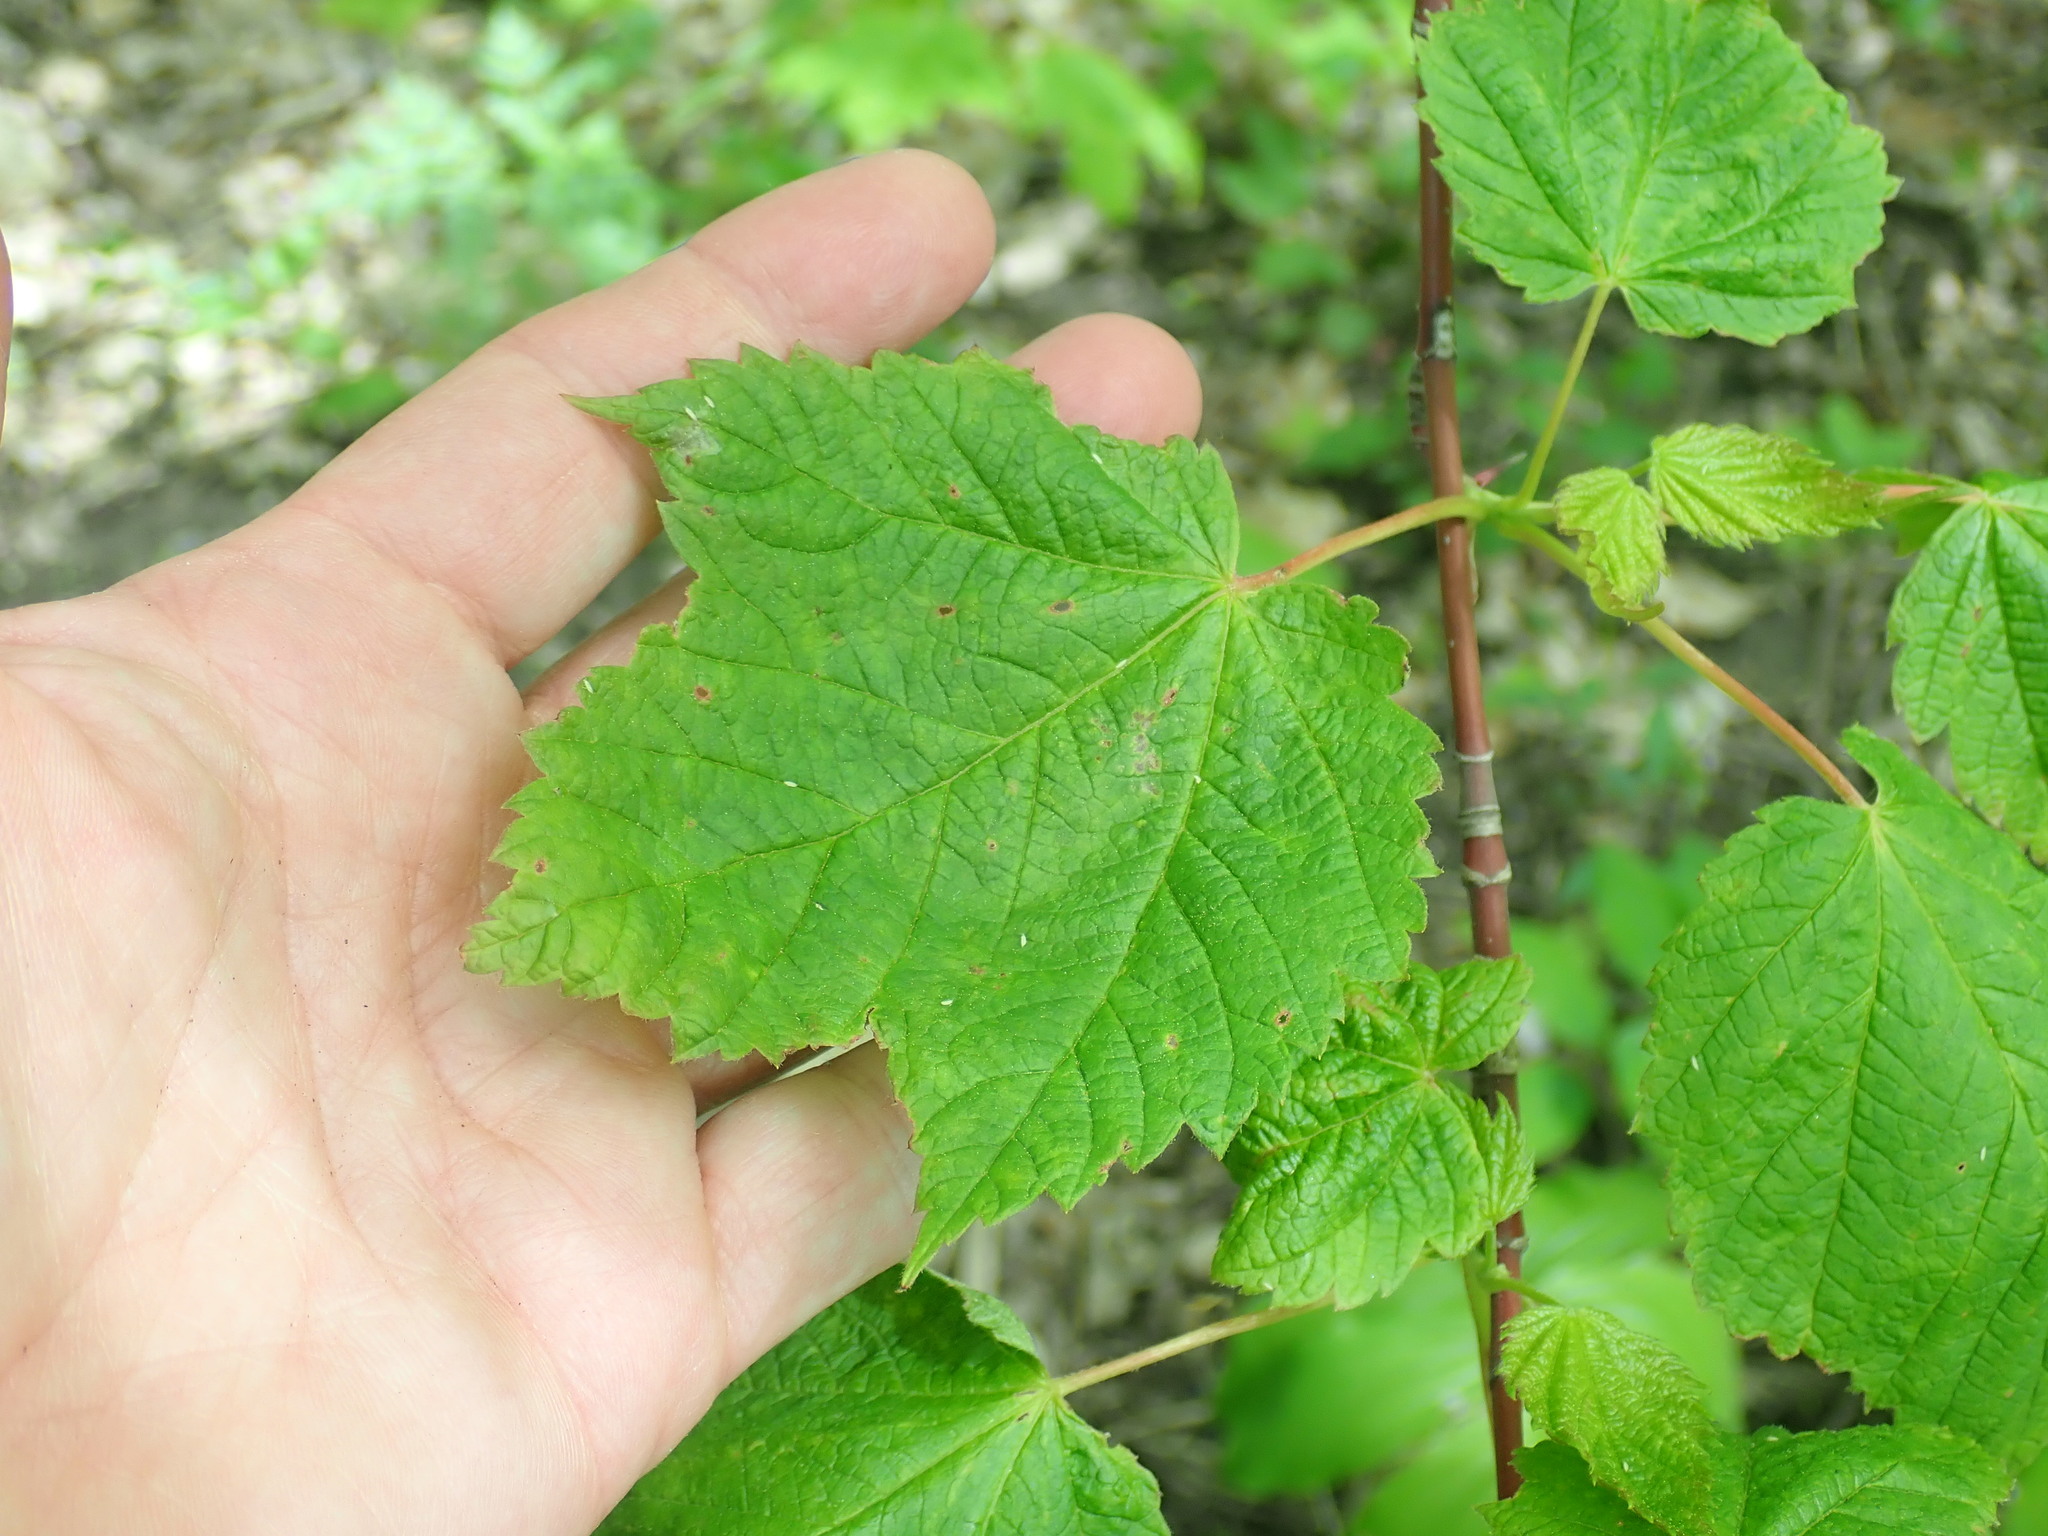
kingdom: Plantae
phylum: Tracheophyta
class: Magnoliopsida
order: Sapindales
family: Sapindaceae
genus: Acer
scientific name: Acer spicatum
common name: Mountain maple
